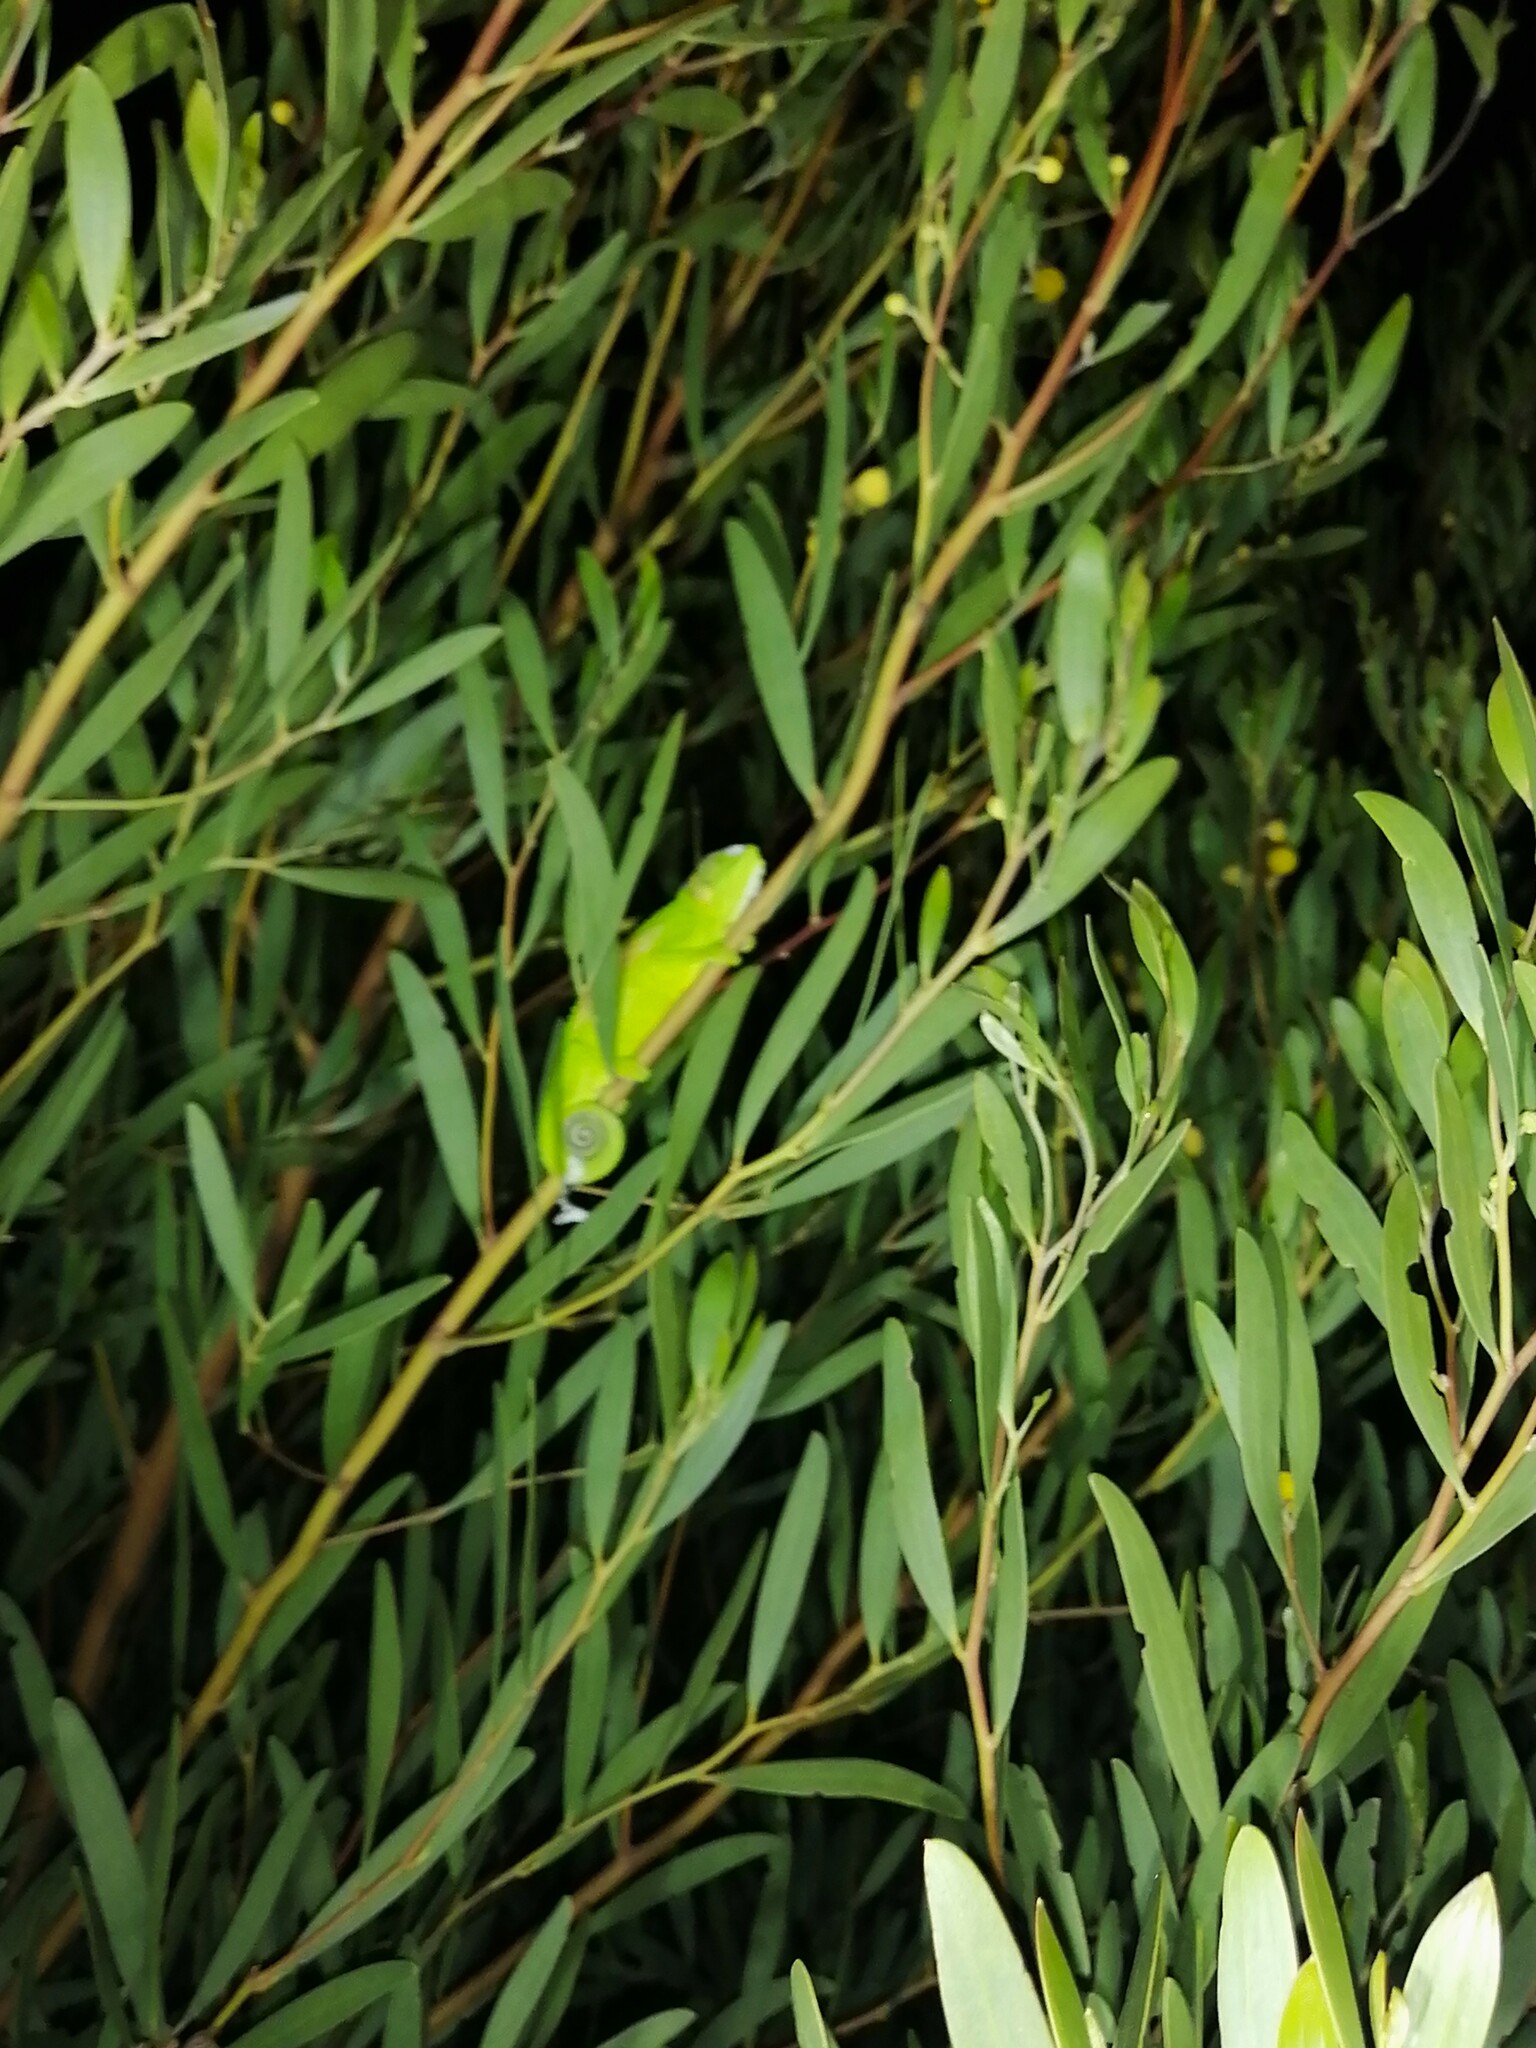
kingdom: Animalia
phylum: Chordata
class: Squamata
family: Chamaeleonidae
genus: Bradypodion
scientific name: Bradypodion pumilum
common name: Cape dwarf chameleon
